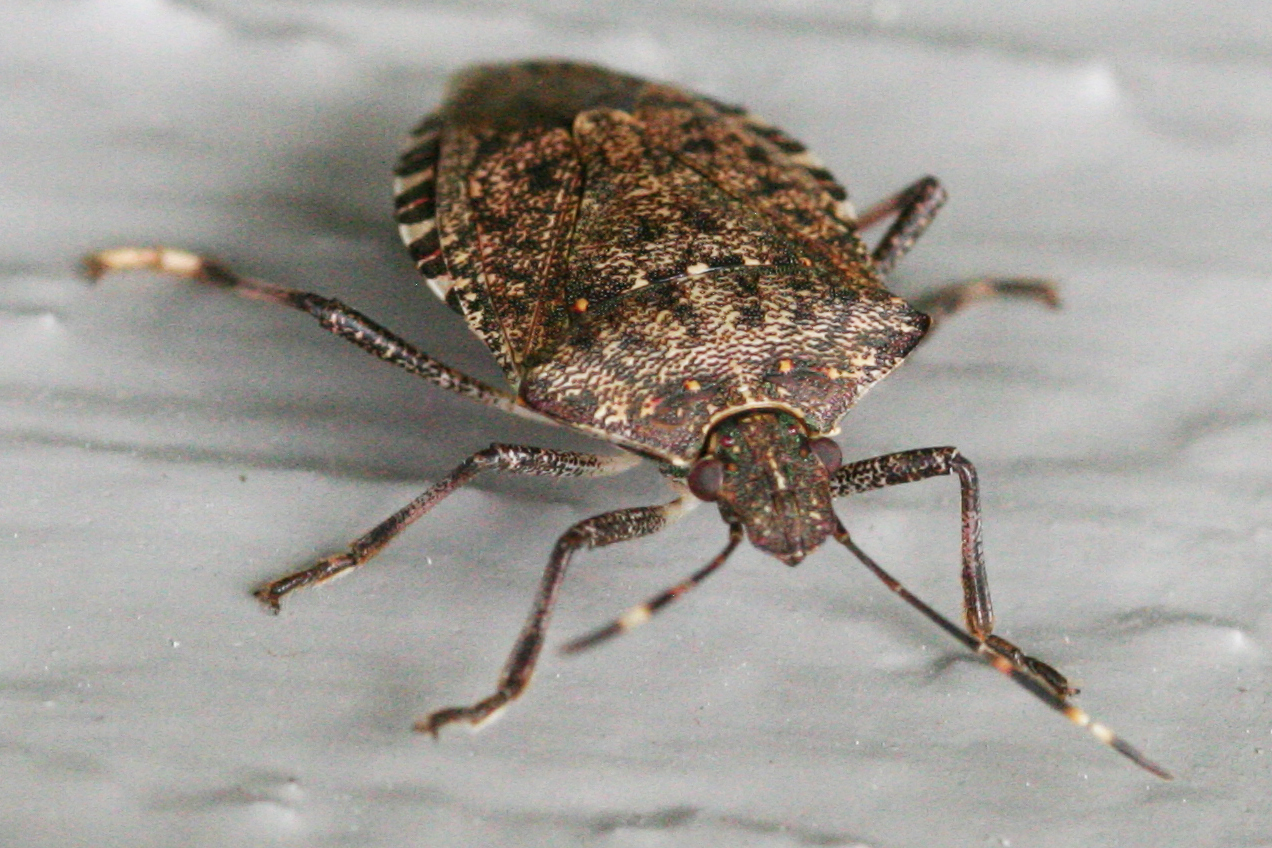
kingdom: Animalia
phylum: Arthropoda
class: Insecta
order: Hemiptera
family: Pentatomidae
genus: Halyomorpha
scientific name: Halyomorpha halys
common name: Brown marmorated stink bug
